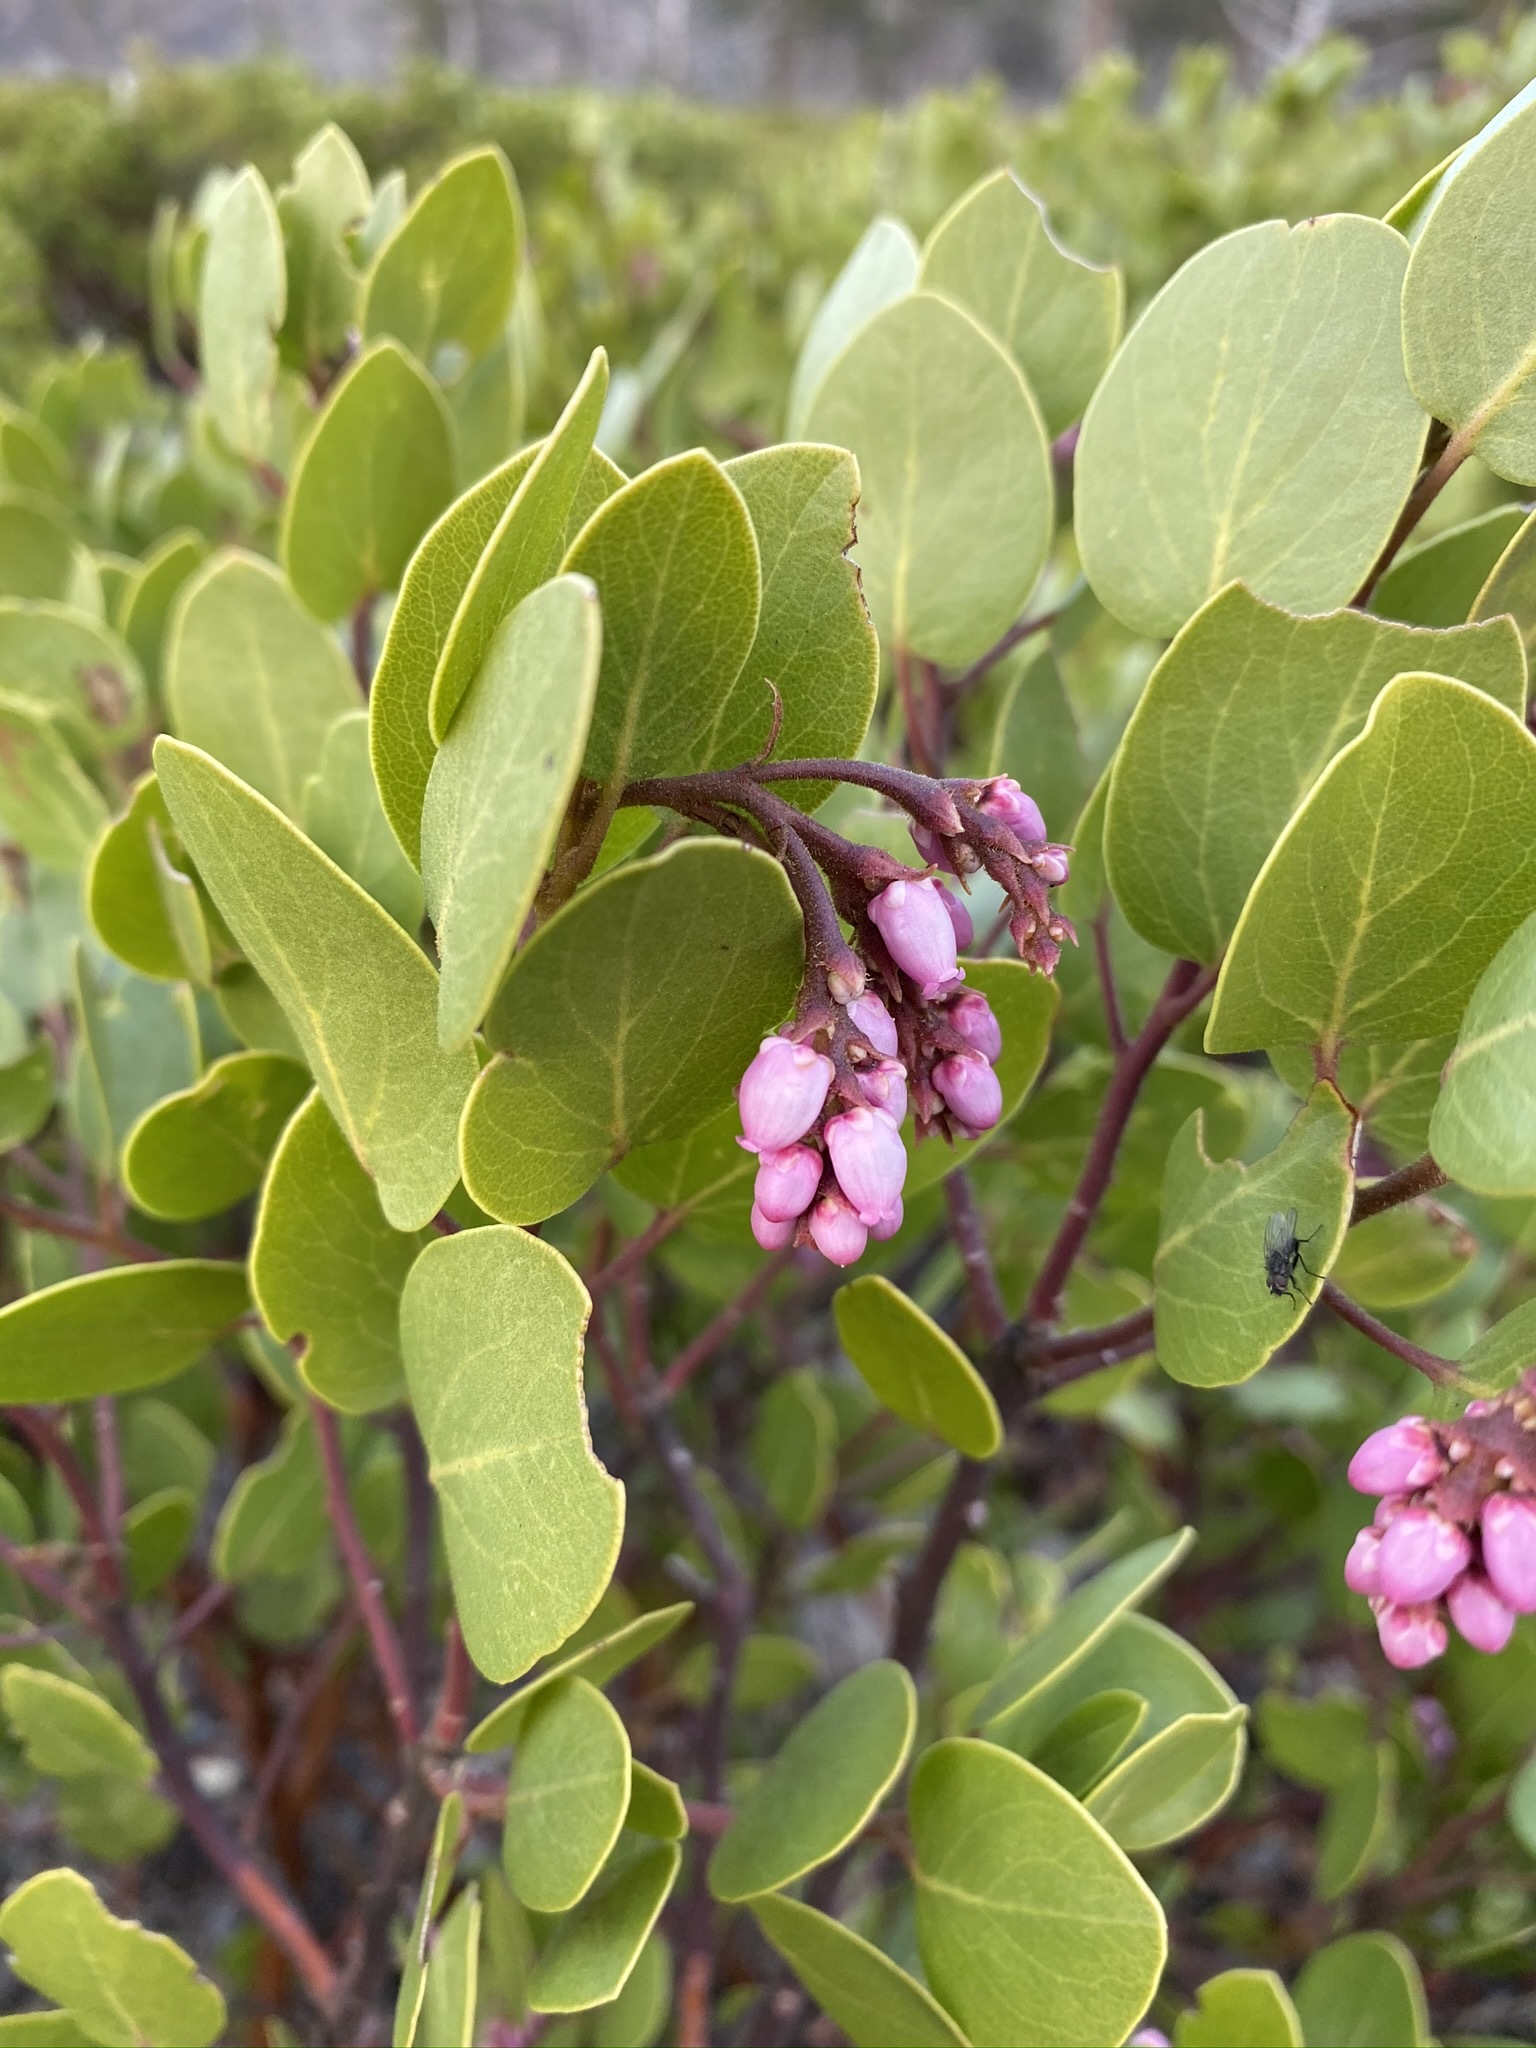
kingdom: Plantae
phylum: Tracheophyta
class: Magnoliopsida
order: Ericales
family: Ericaceae
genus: Arctostaphylos
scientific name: Arctostaphylos patula
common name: Green-leaf manzanita
